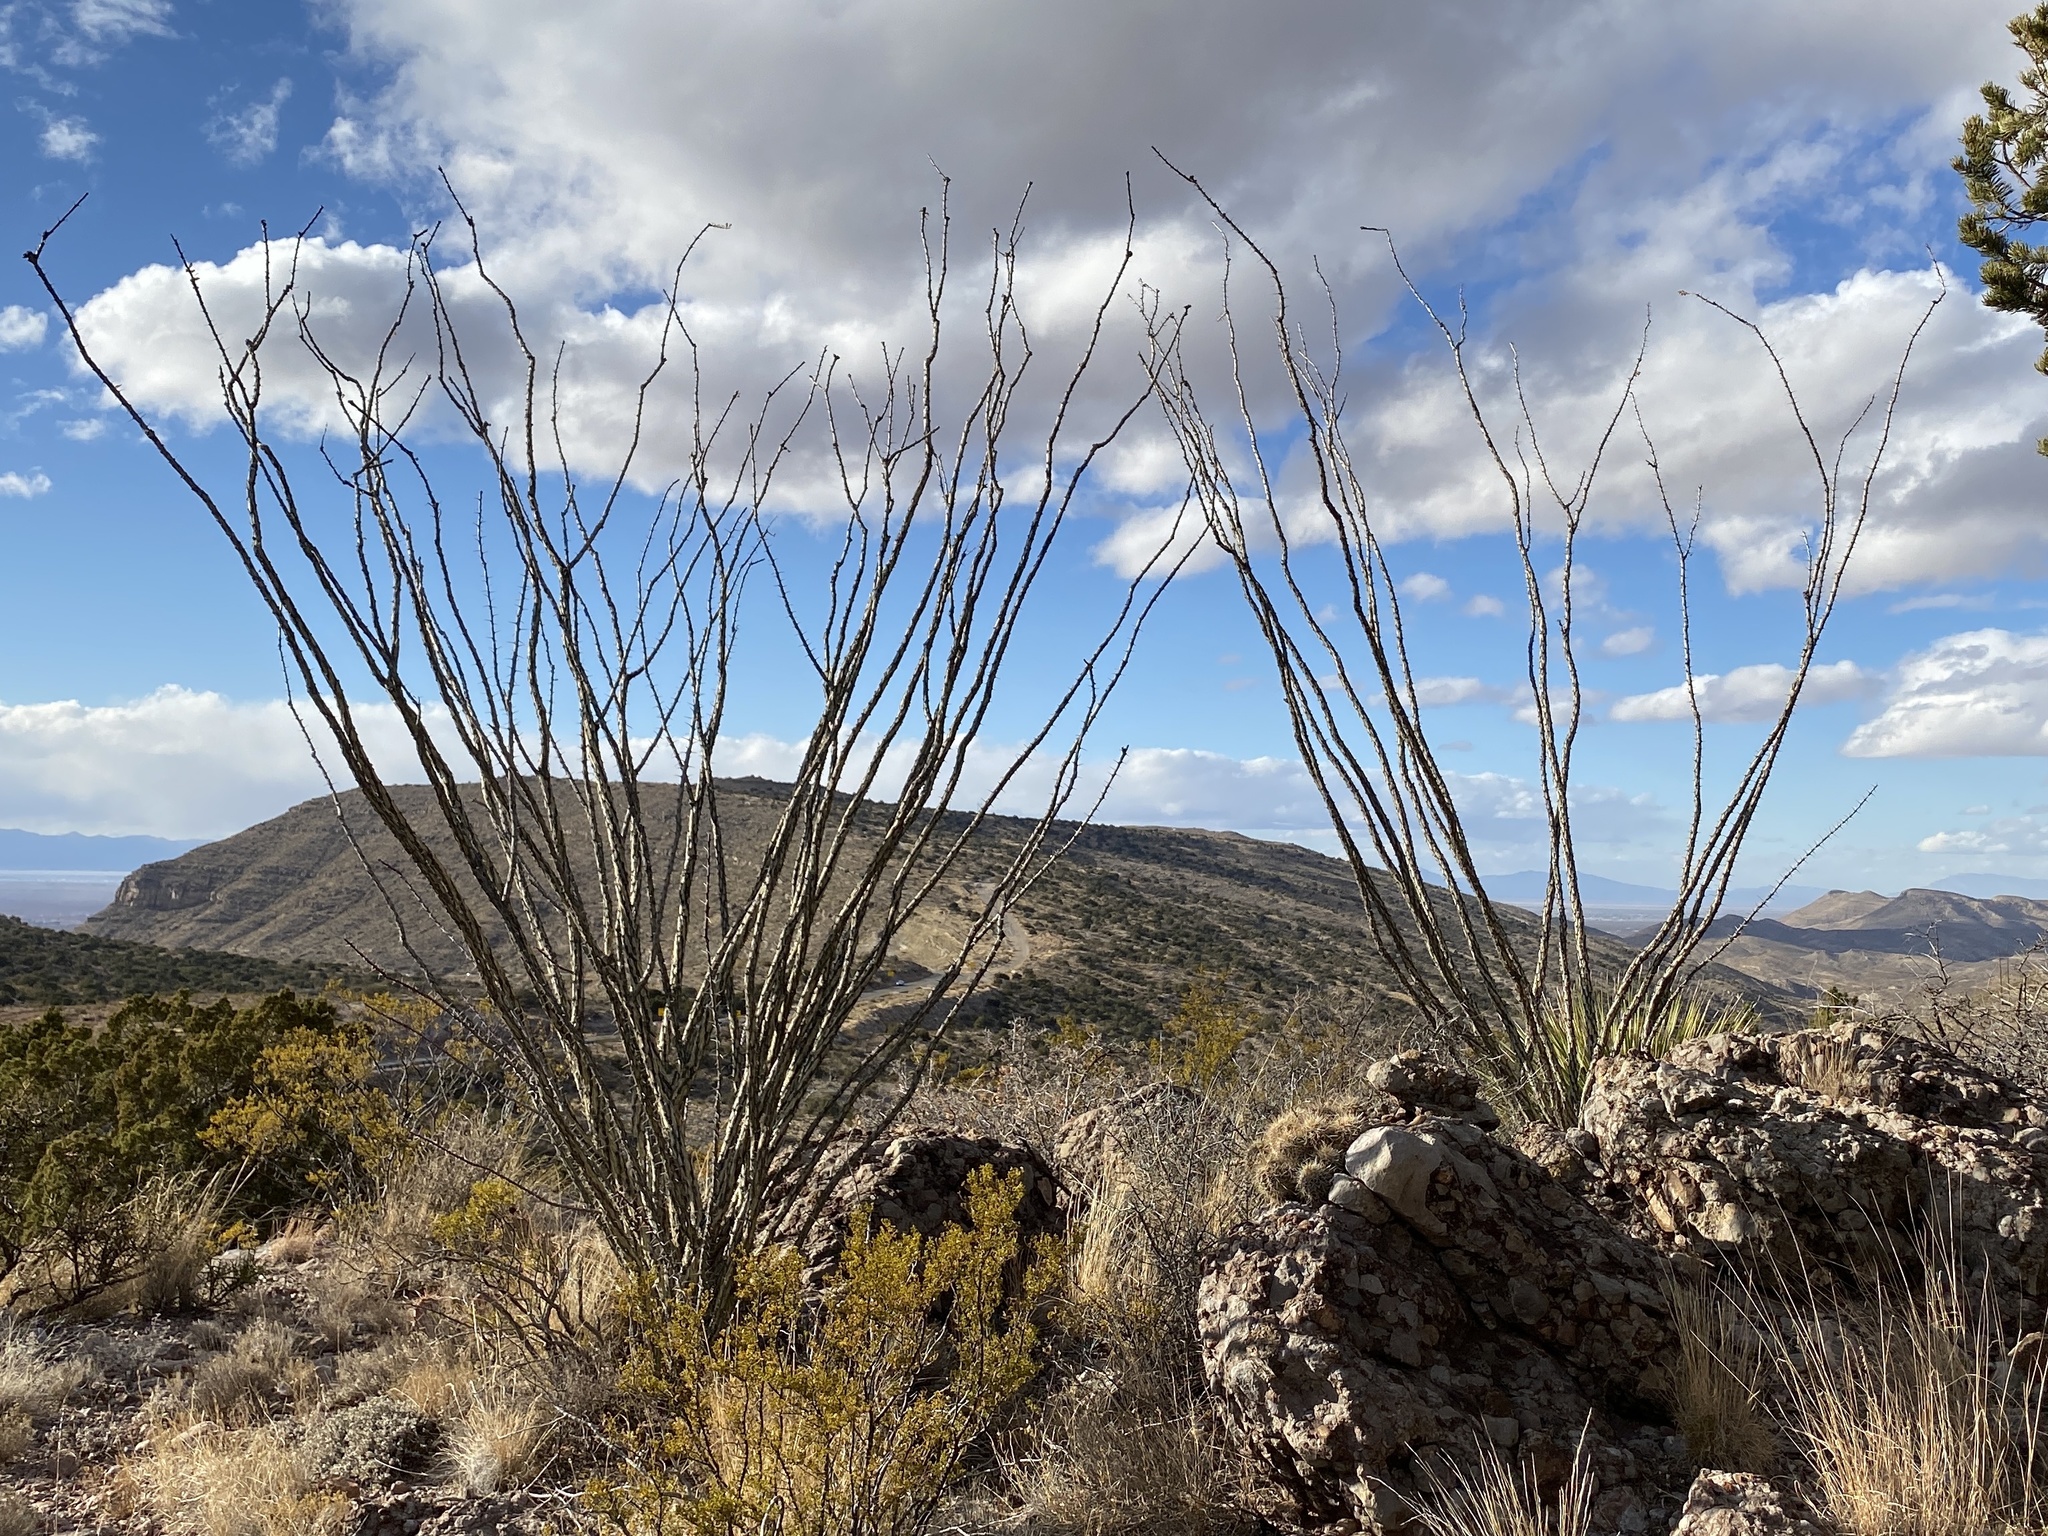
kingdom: Plantae
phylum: Tracheophyta
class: Magnoliopsida
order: Ericales
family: Fouquieriaceae
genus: Fouquieria
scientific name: Fouquieria splendens
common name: Vine-cactus
